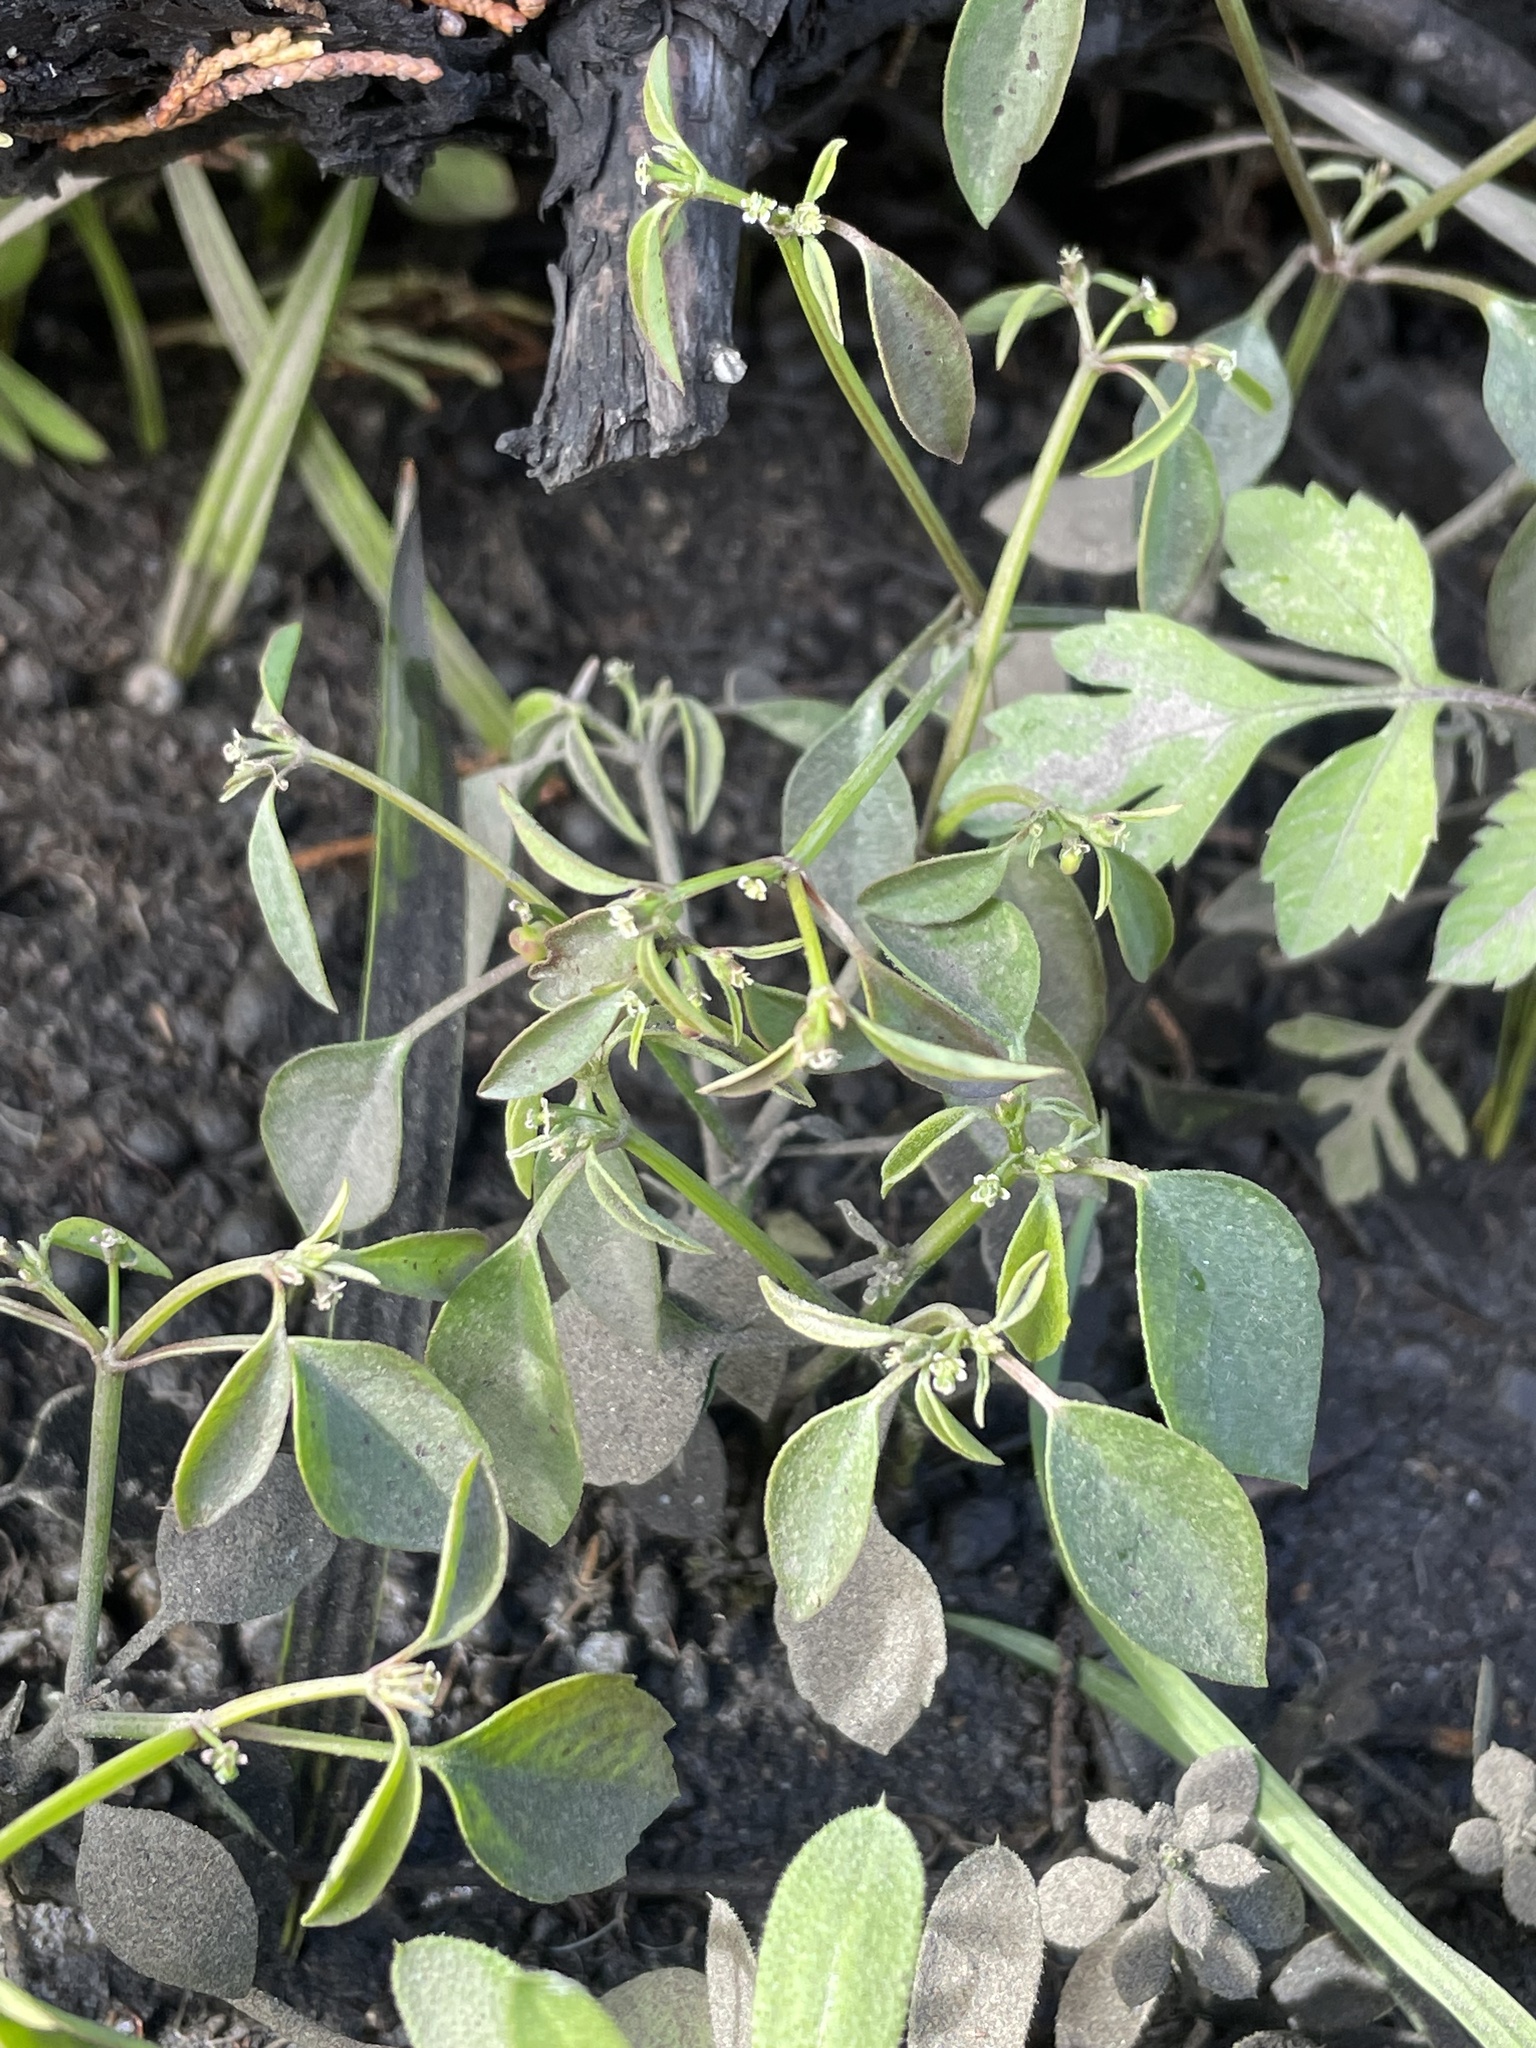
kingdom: Plantae
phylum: Tracheophyta
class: Magnoliopsida
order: Malpighiales
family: Euphorbiaceae
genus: Euphorbia
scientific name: Euphorbia graminea
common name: Grassleaf spurge
